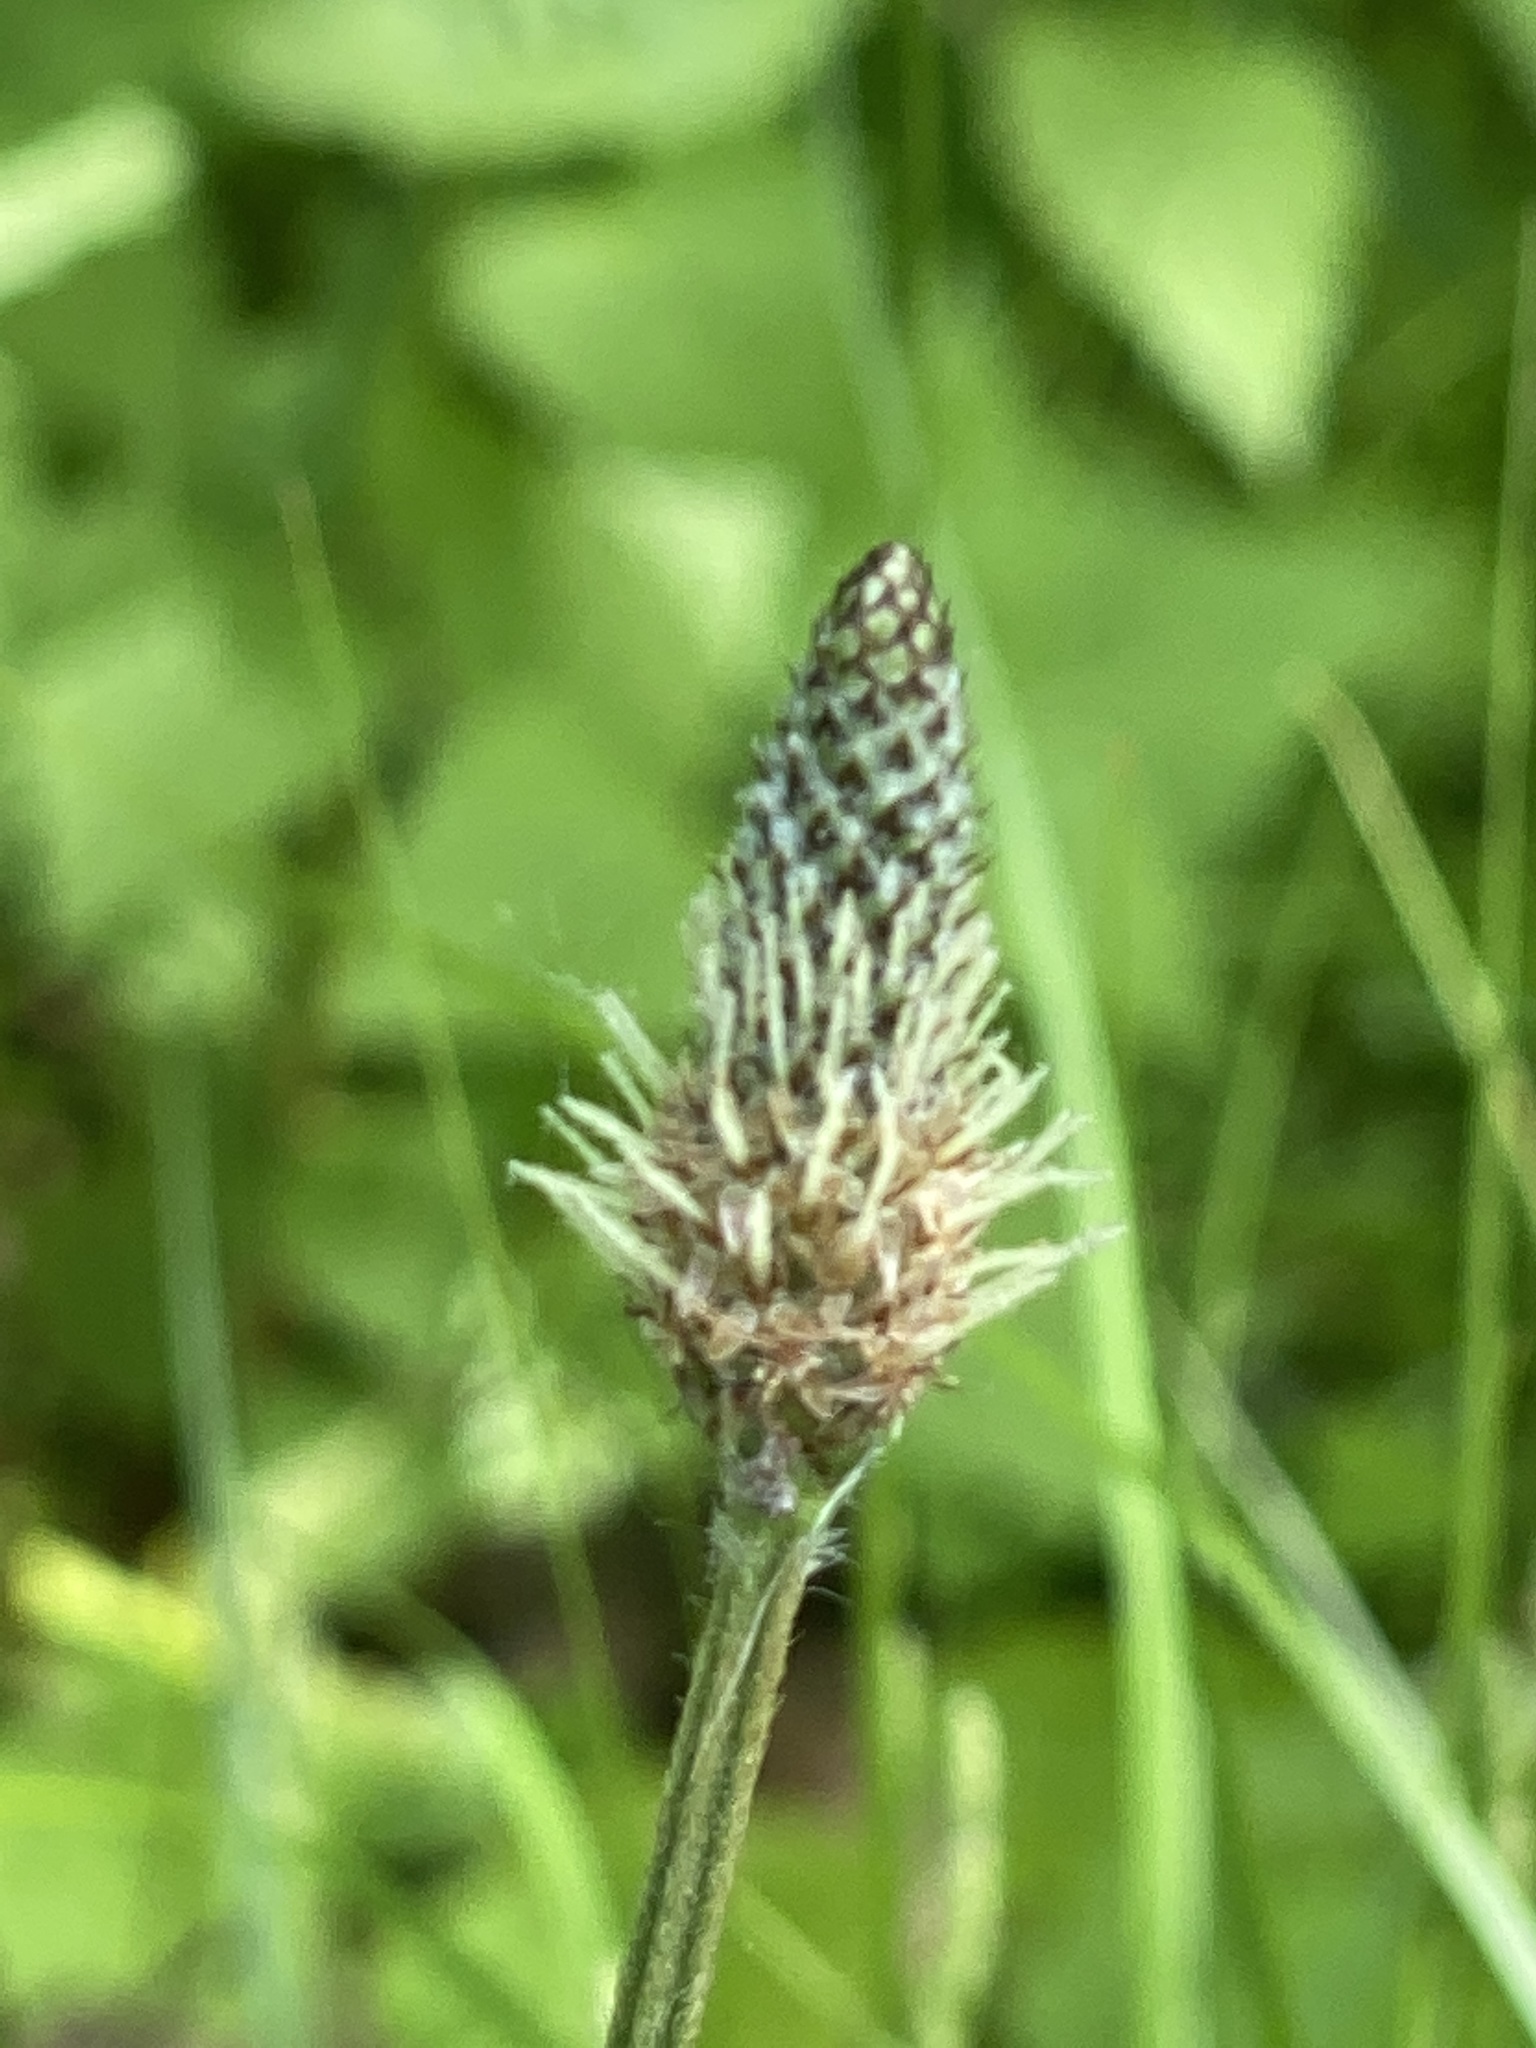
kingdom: Plantae
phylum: Tracheophyta
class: Magnoliopsida
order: Lamiales
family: Plantaginaceae
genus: Plantago
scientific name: Plantago lanceolata
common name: Ribwort plantain
